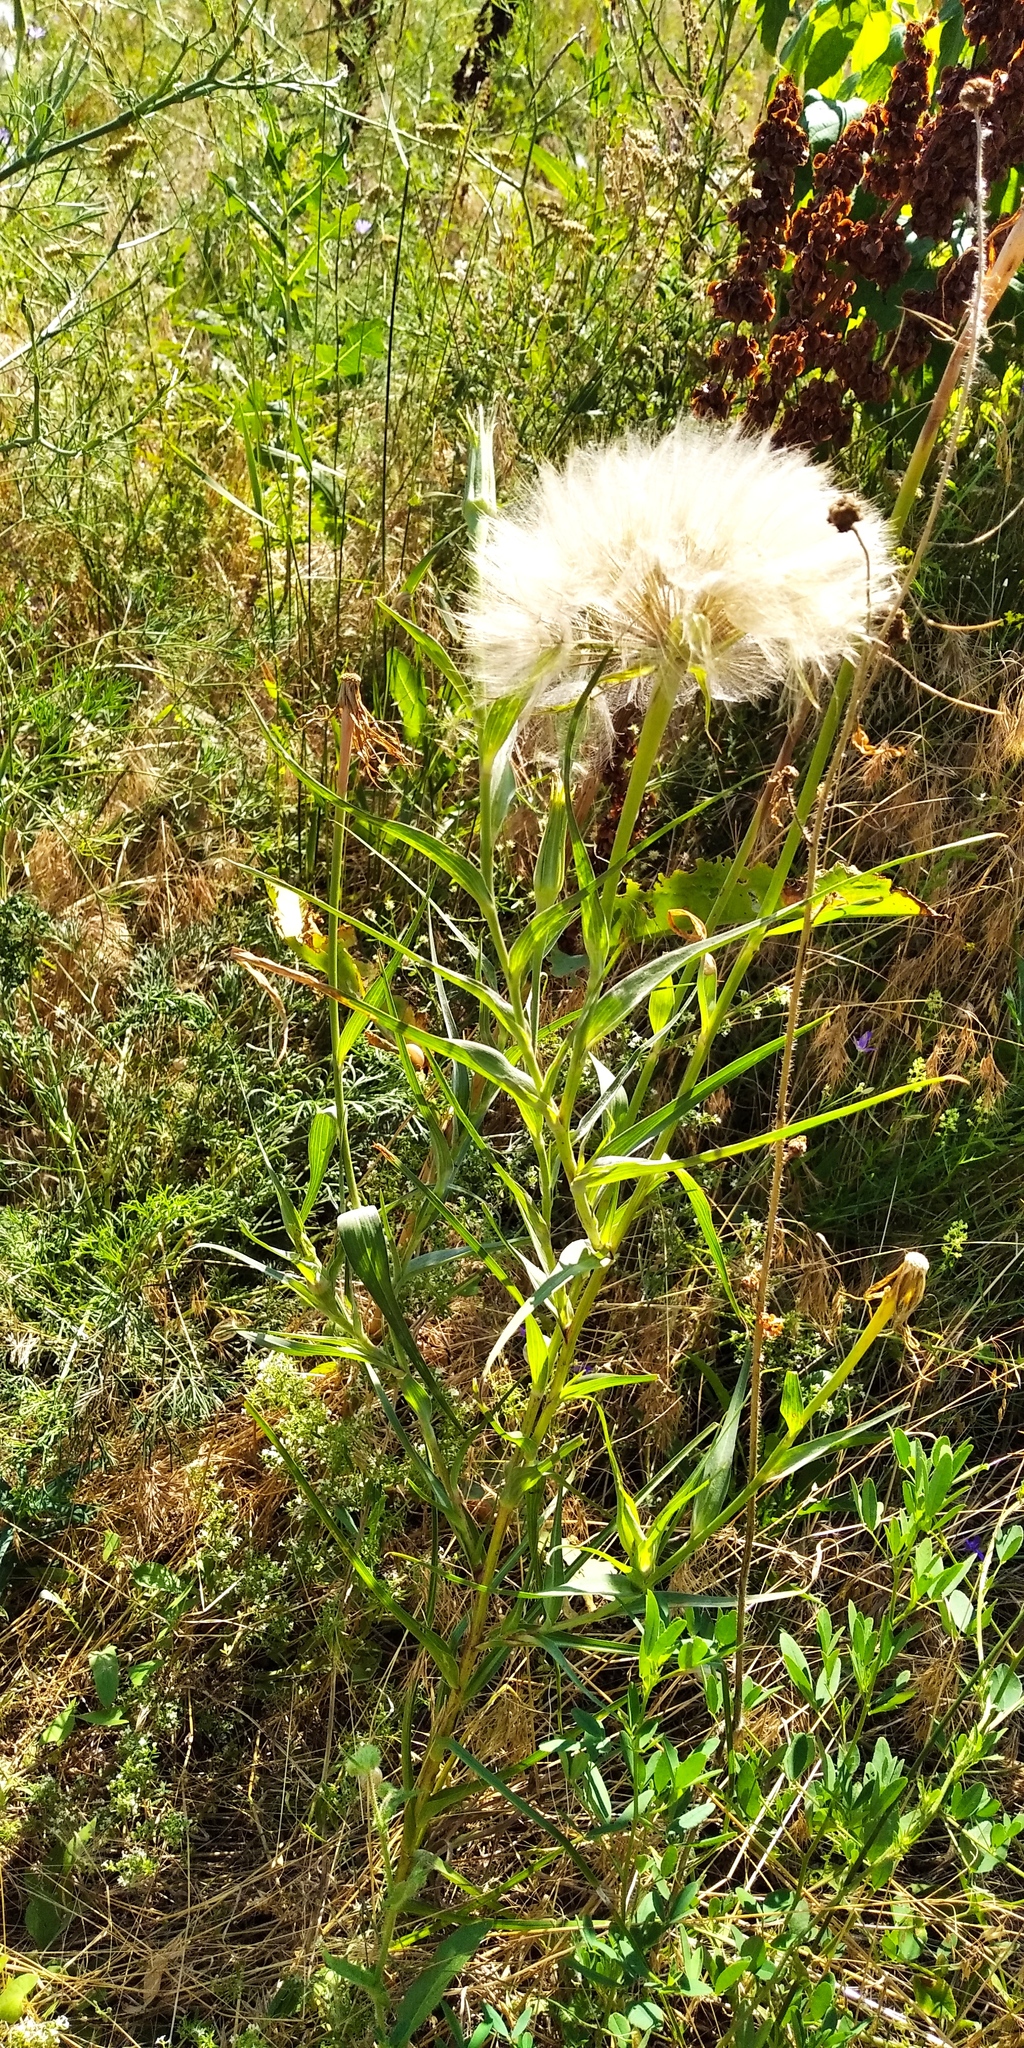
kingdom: Plantae
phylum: Tracheophyta
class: Magnoliopsida
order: Asterales
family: Asteraceae
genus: Tragopogon
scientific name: Tragopogon dubius
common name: Yellow salsify
